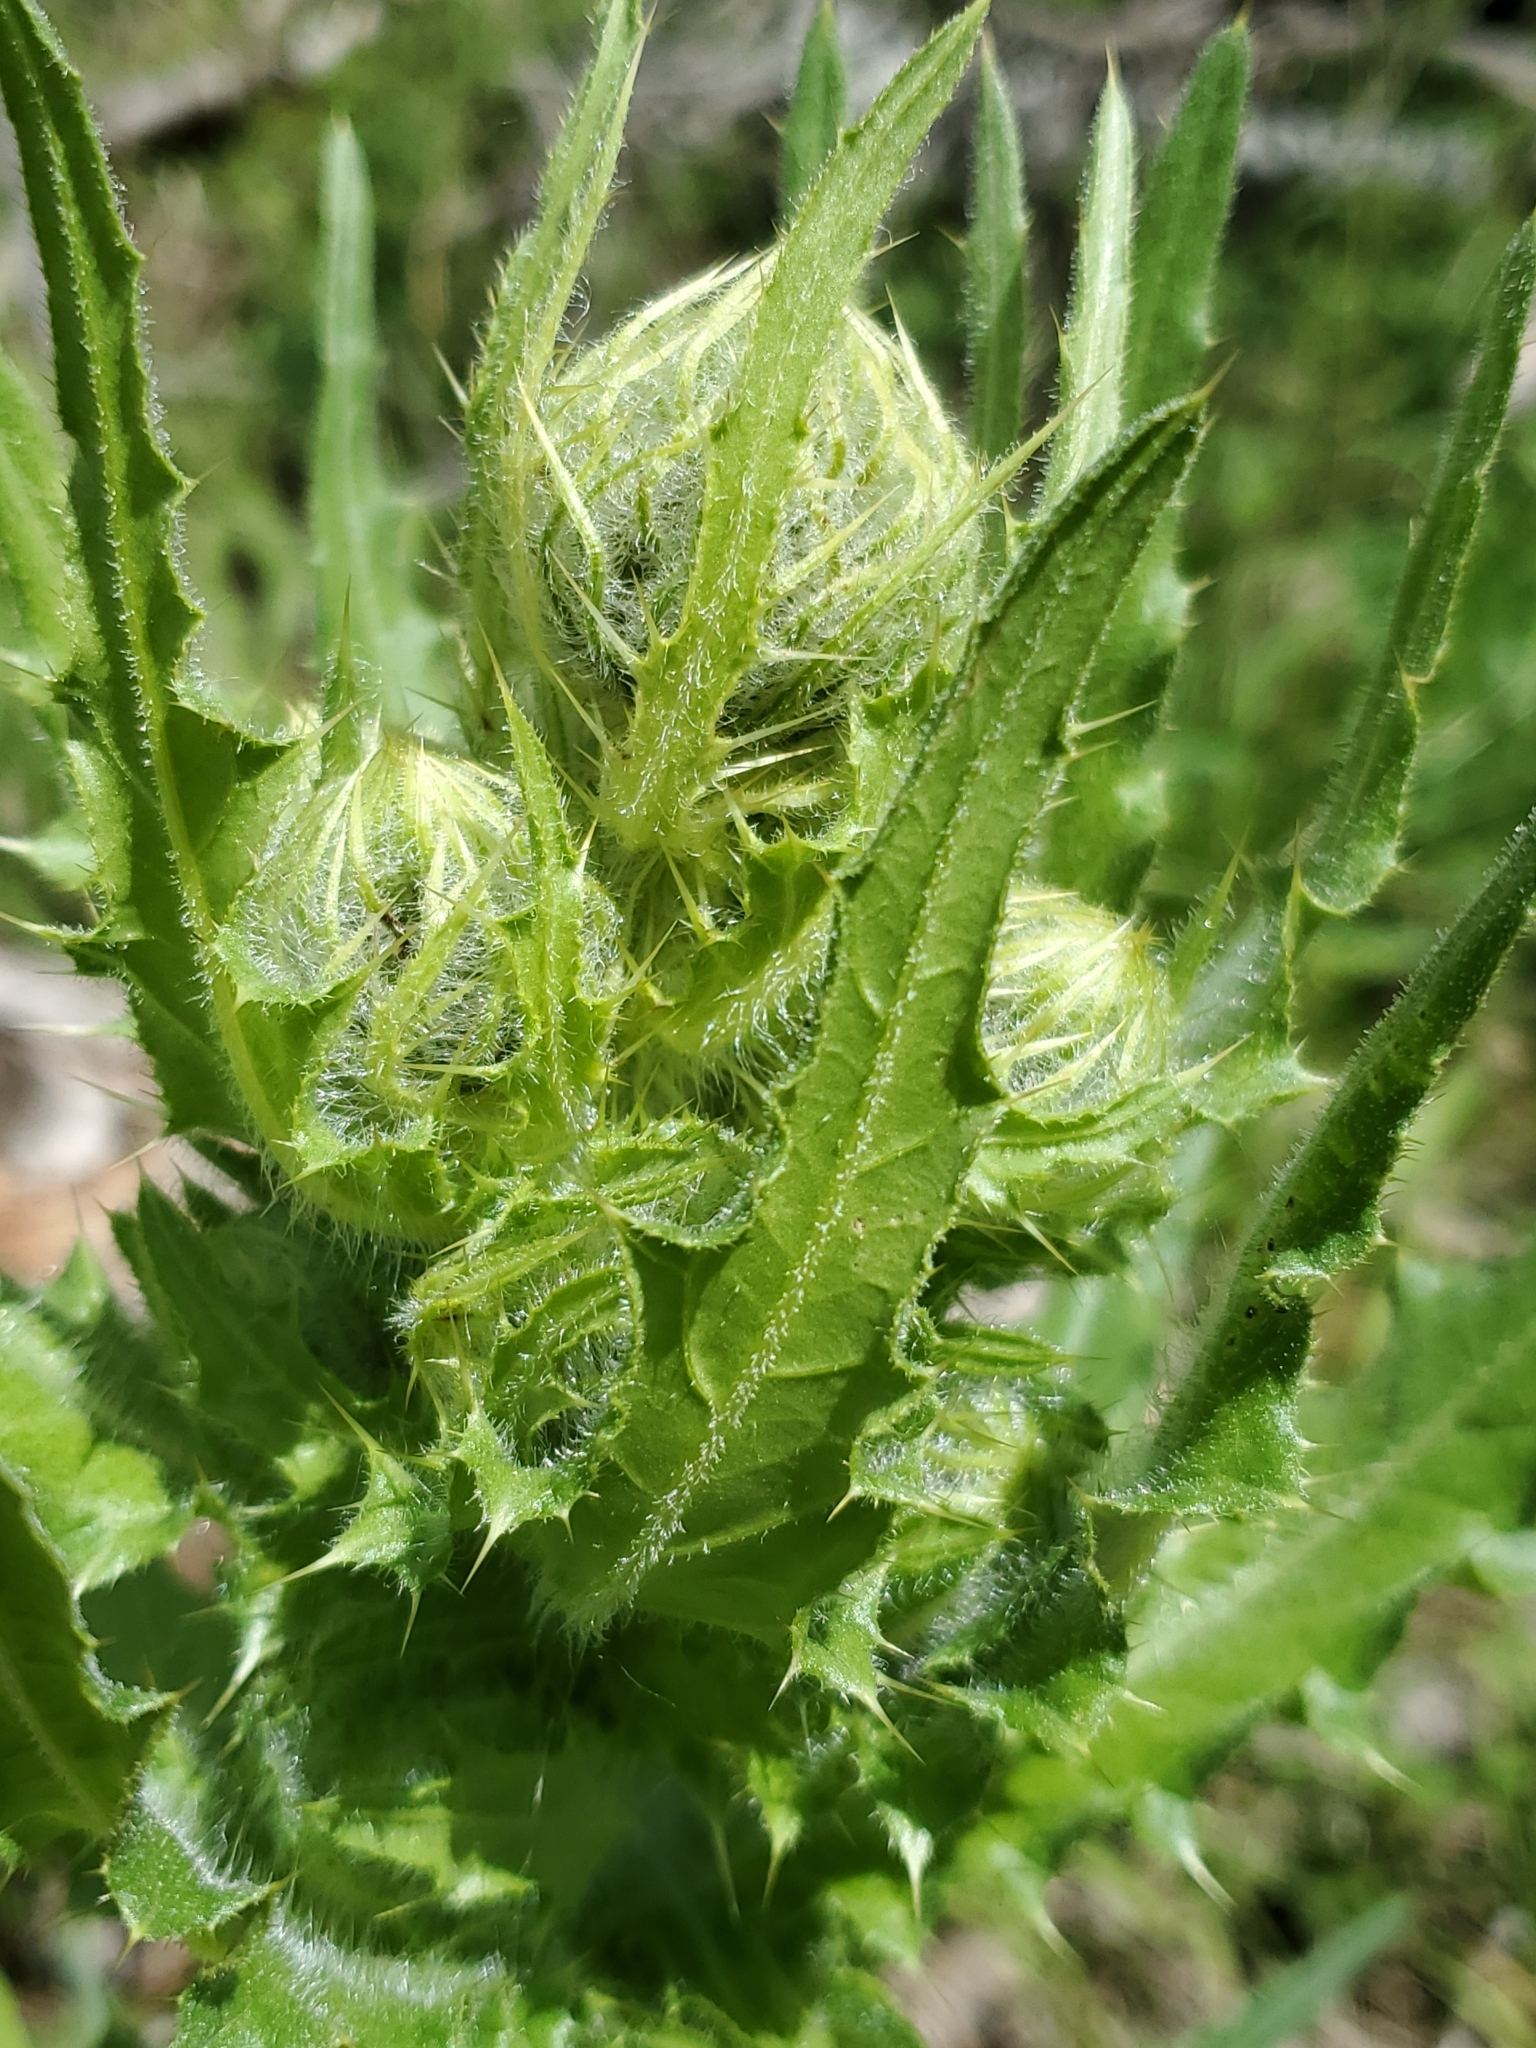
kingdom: Plantae
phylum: Tracheophyta
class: Magnoliopsida
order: Asterales
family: Asteraceae
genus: Cirsium
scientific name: Cirsium parryi
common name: Parry's thistle
